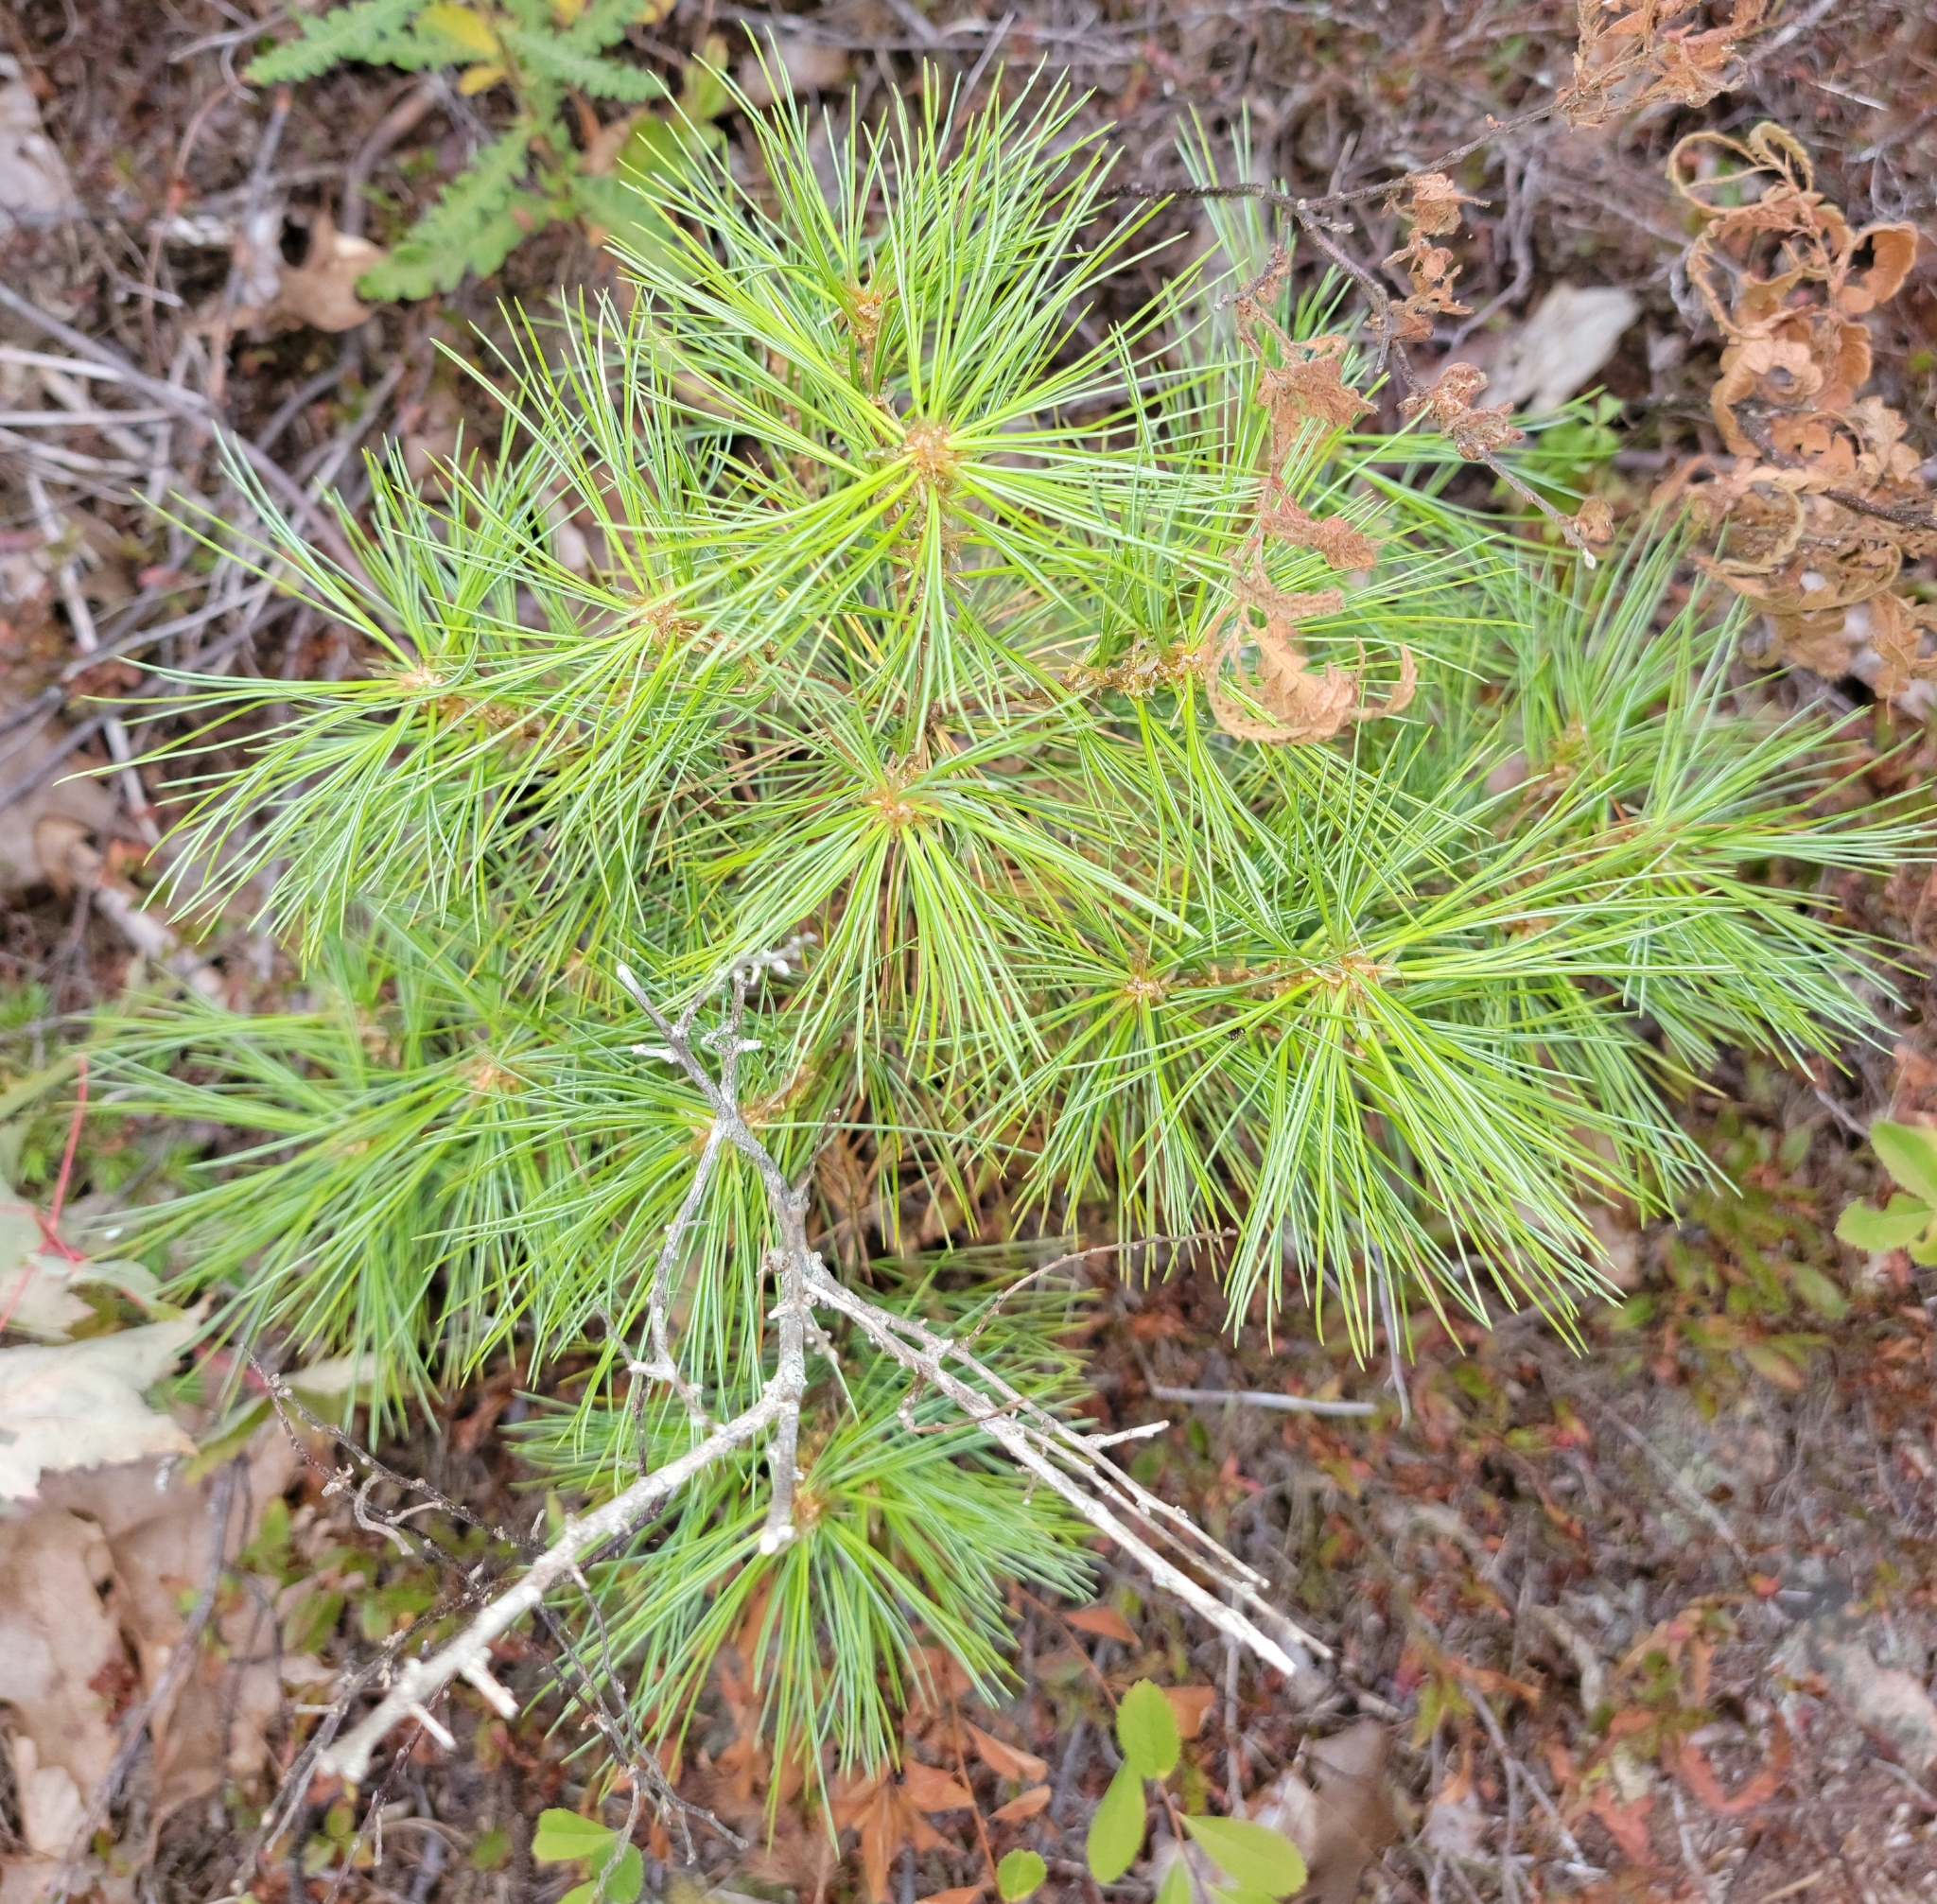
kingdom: Plantae
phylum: Tracheophyta
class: Pinopsida
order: Pinales
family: Pinaceae
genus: Pinus
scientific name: Pinus strobus
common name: Weymouth pine
